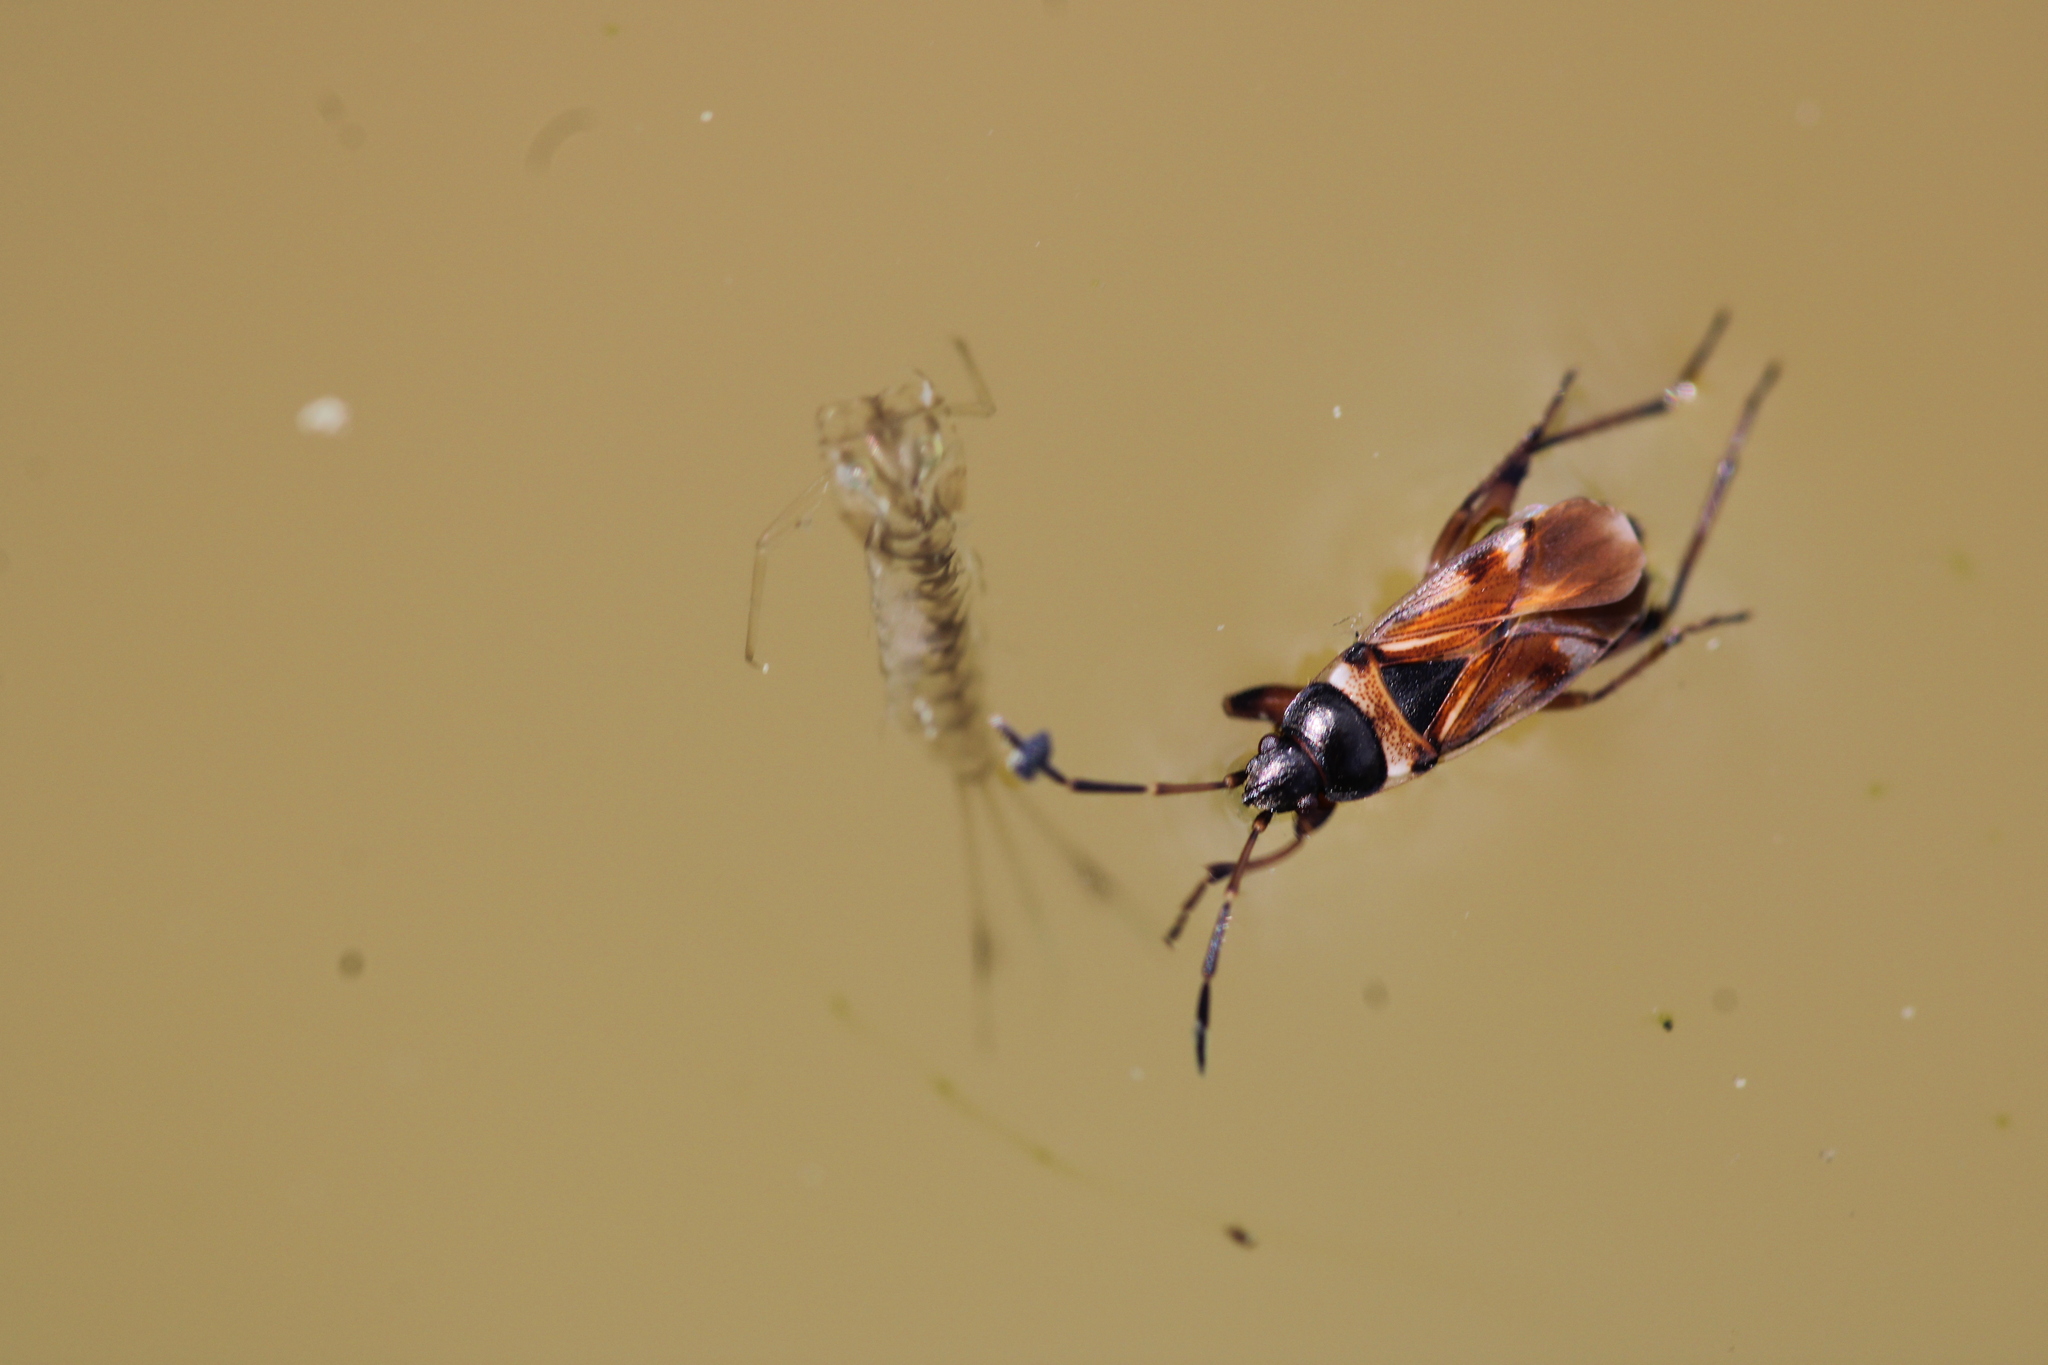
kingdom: Animalia
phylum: Arthropoda
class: Insecta
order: Hemiptera
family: Rhyparochromidae
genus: Raglius
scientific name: Raglius alboacuminatus
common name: Dirt-colored seed bug
